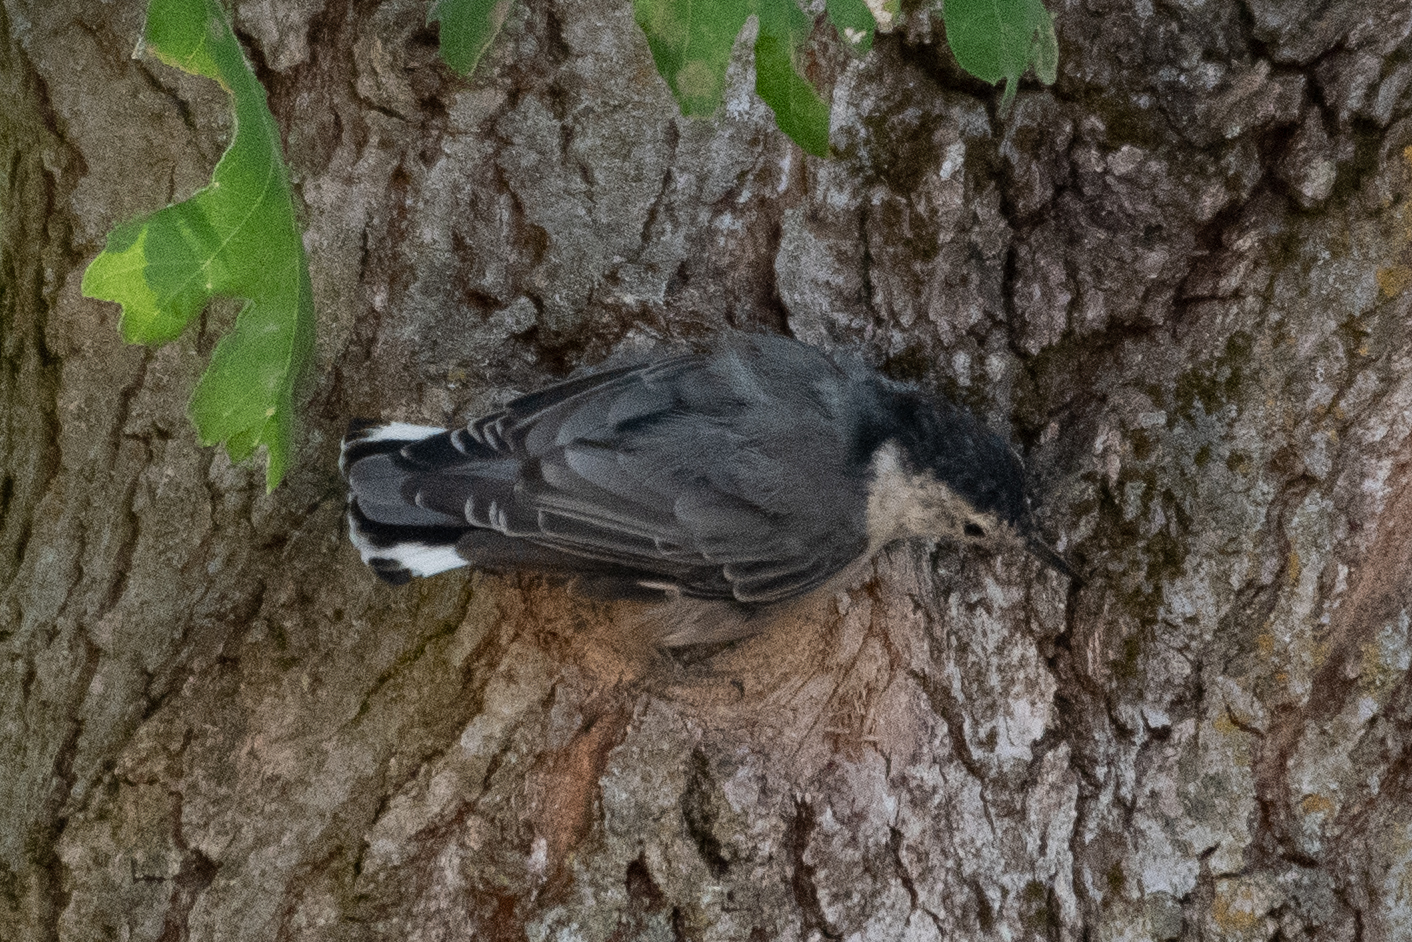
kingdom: Animalia
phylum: Chordata
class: Aves
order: Passeriformes
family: Sittidae
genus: Sitta
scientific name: Sitta carolinensis
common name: White-breasted nuthatch
